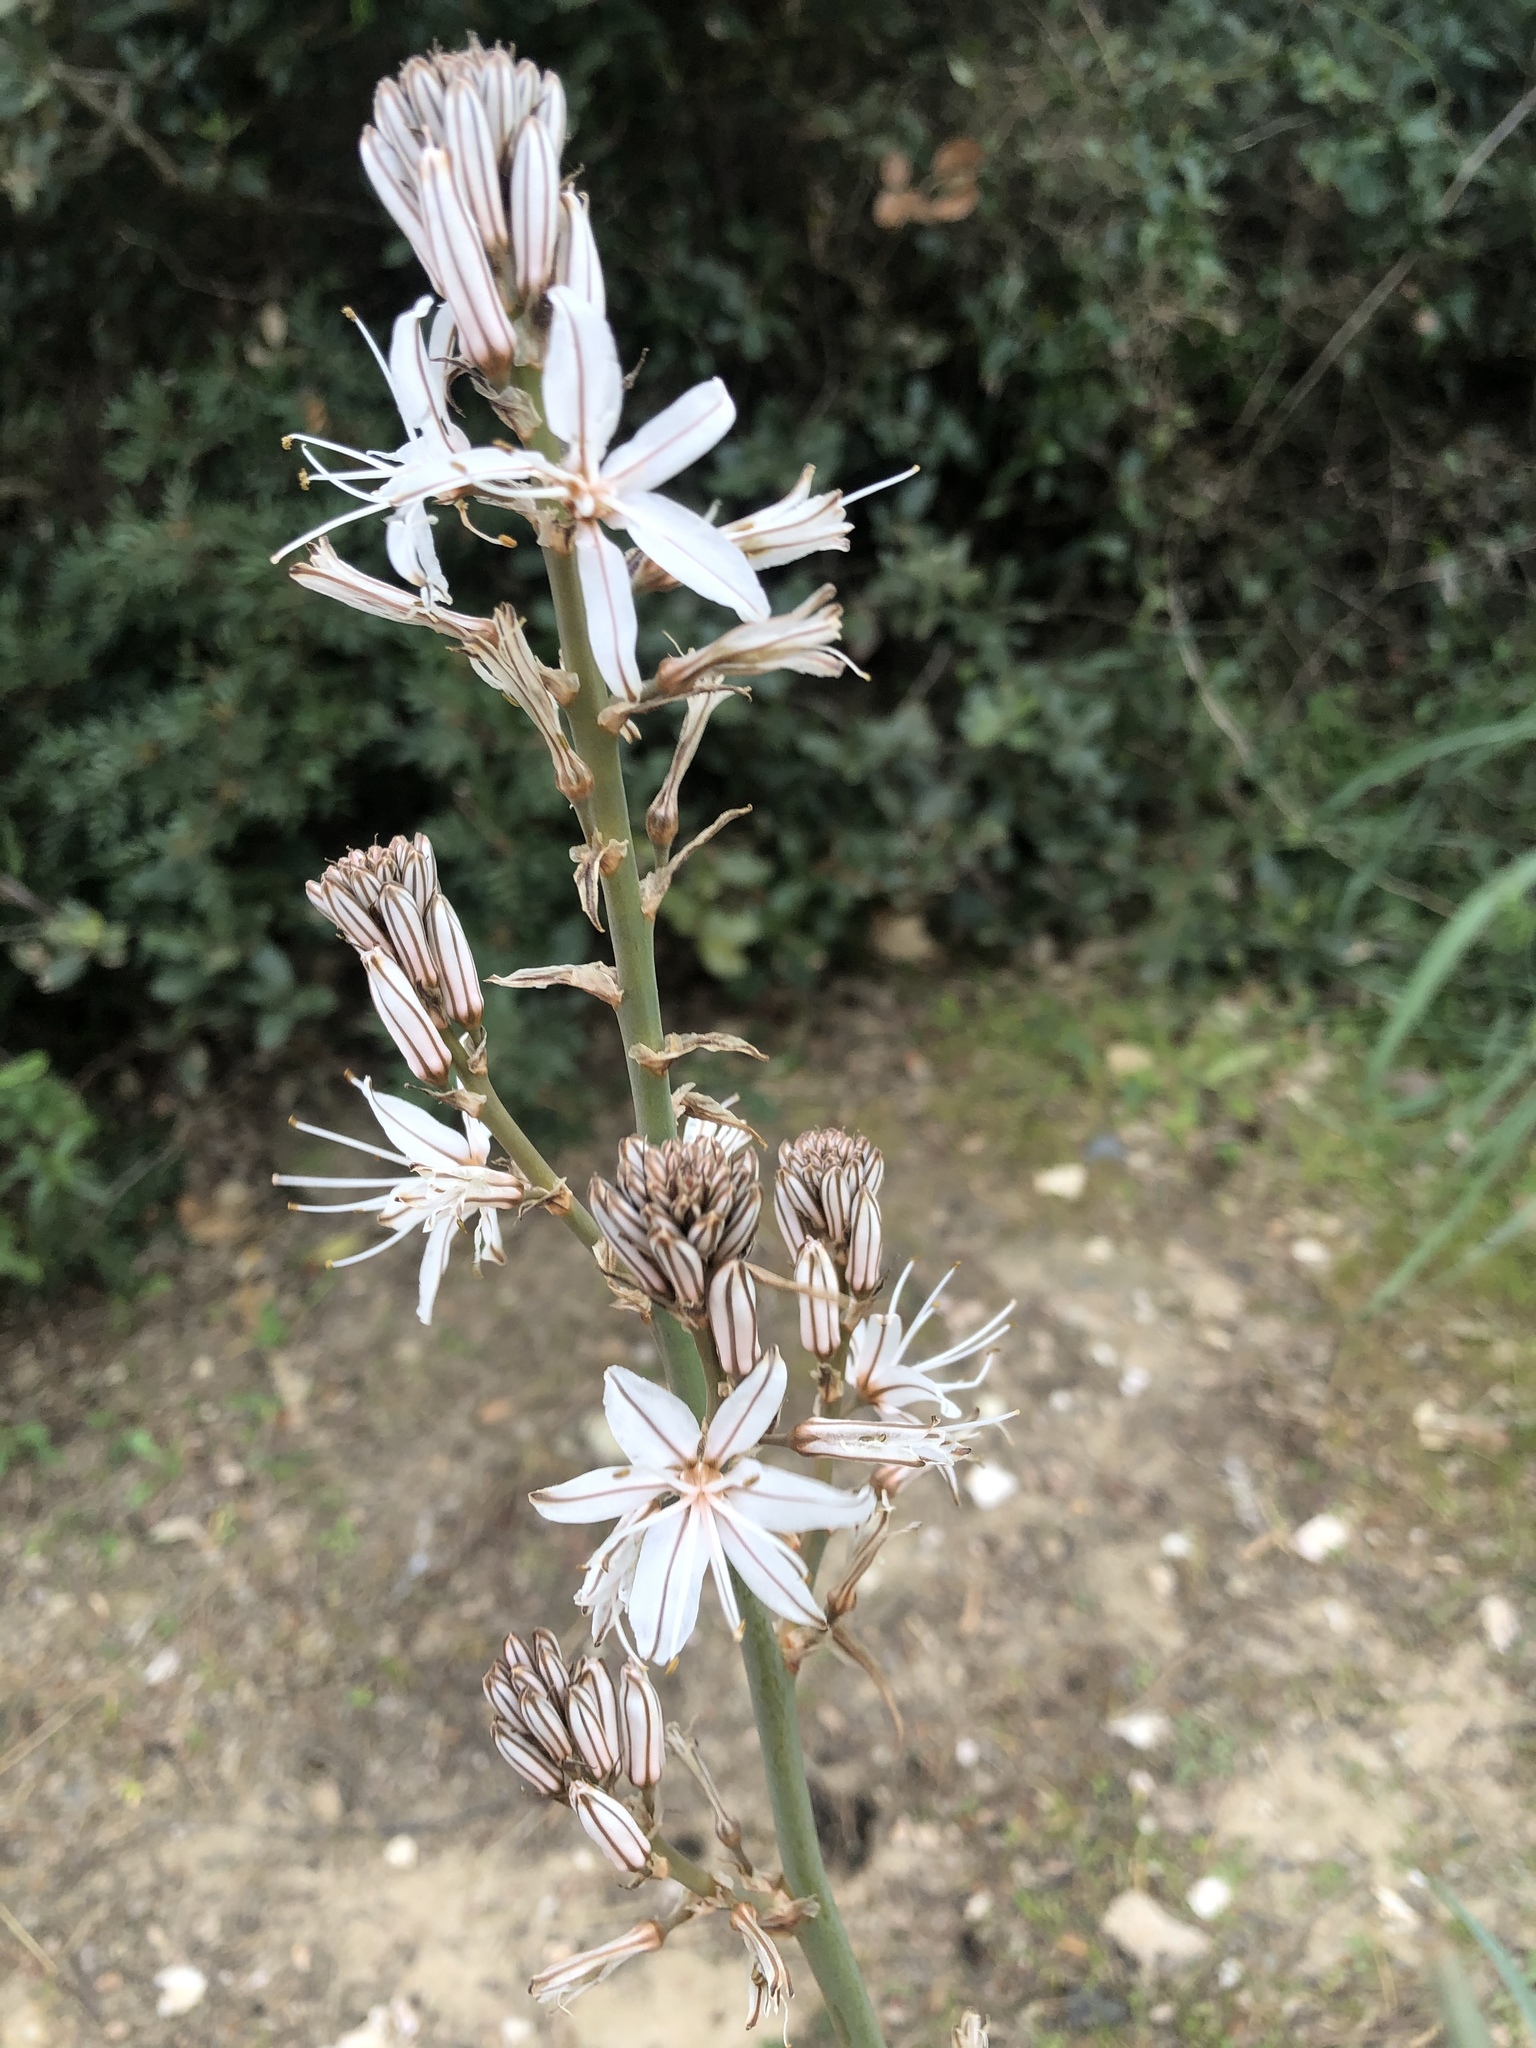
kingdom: Plantae
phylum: Tracheophyta
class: Liliopsida
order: Asparagales
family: Asphodelaceae
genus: Asphodelus
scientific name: Asphodelus albus
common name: White asphodel
